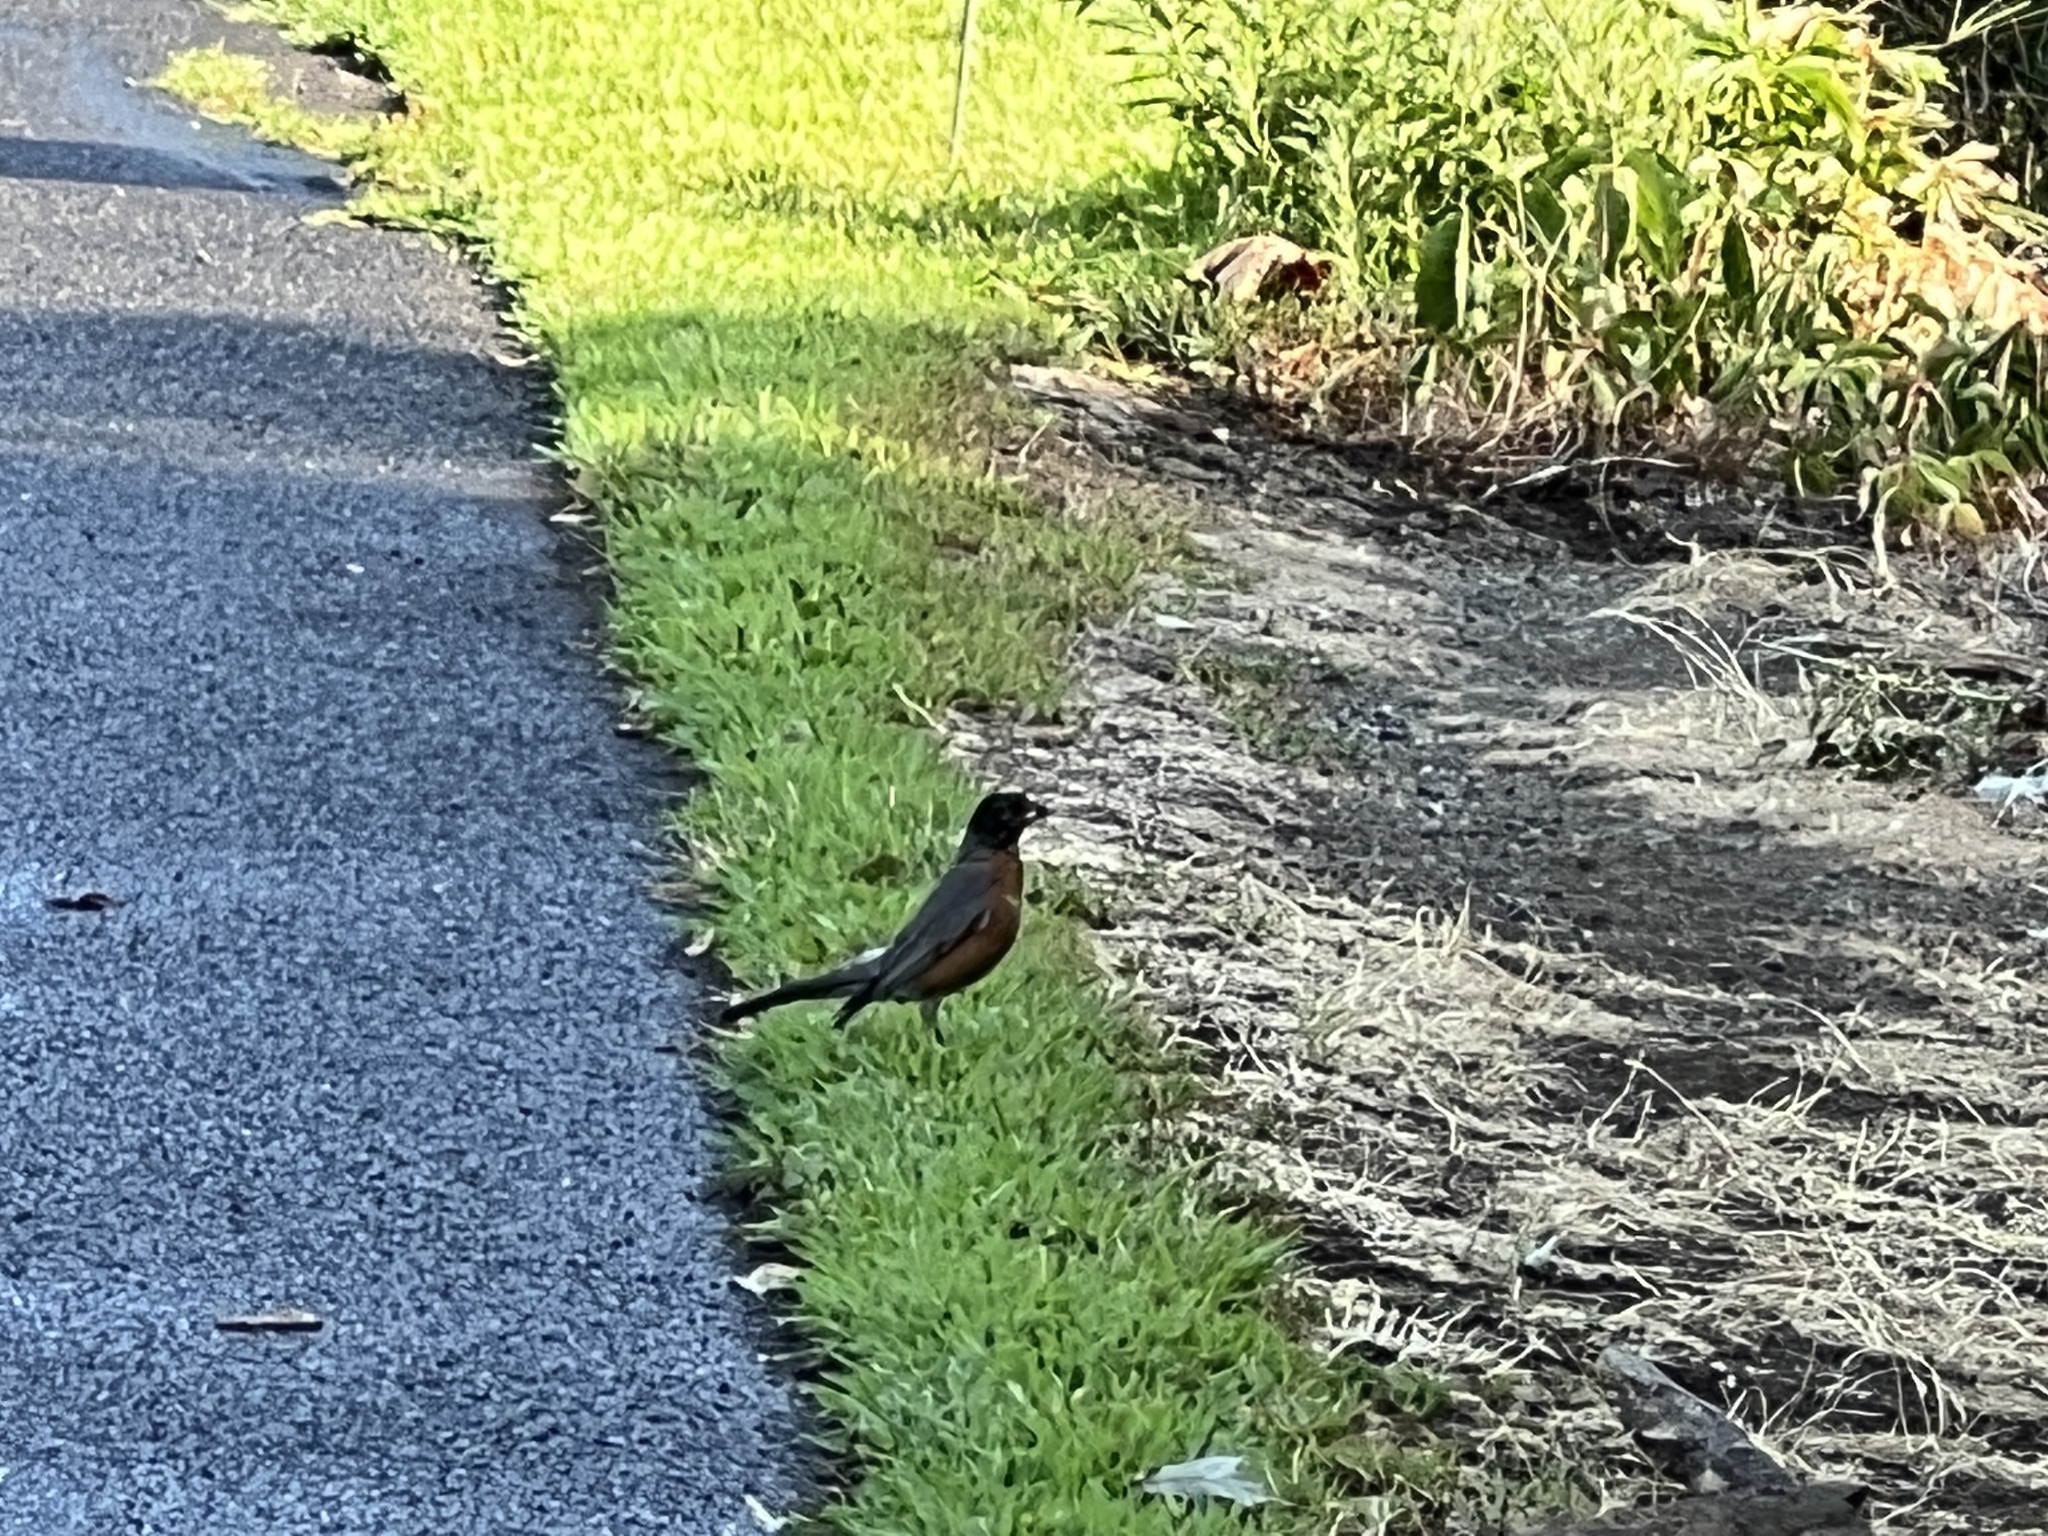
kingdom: Animalia
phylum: Chordata
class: Aves
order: Passeriformes
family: Turdidae
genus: Turdus
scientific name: Turdus migratorius
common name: American robin
